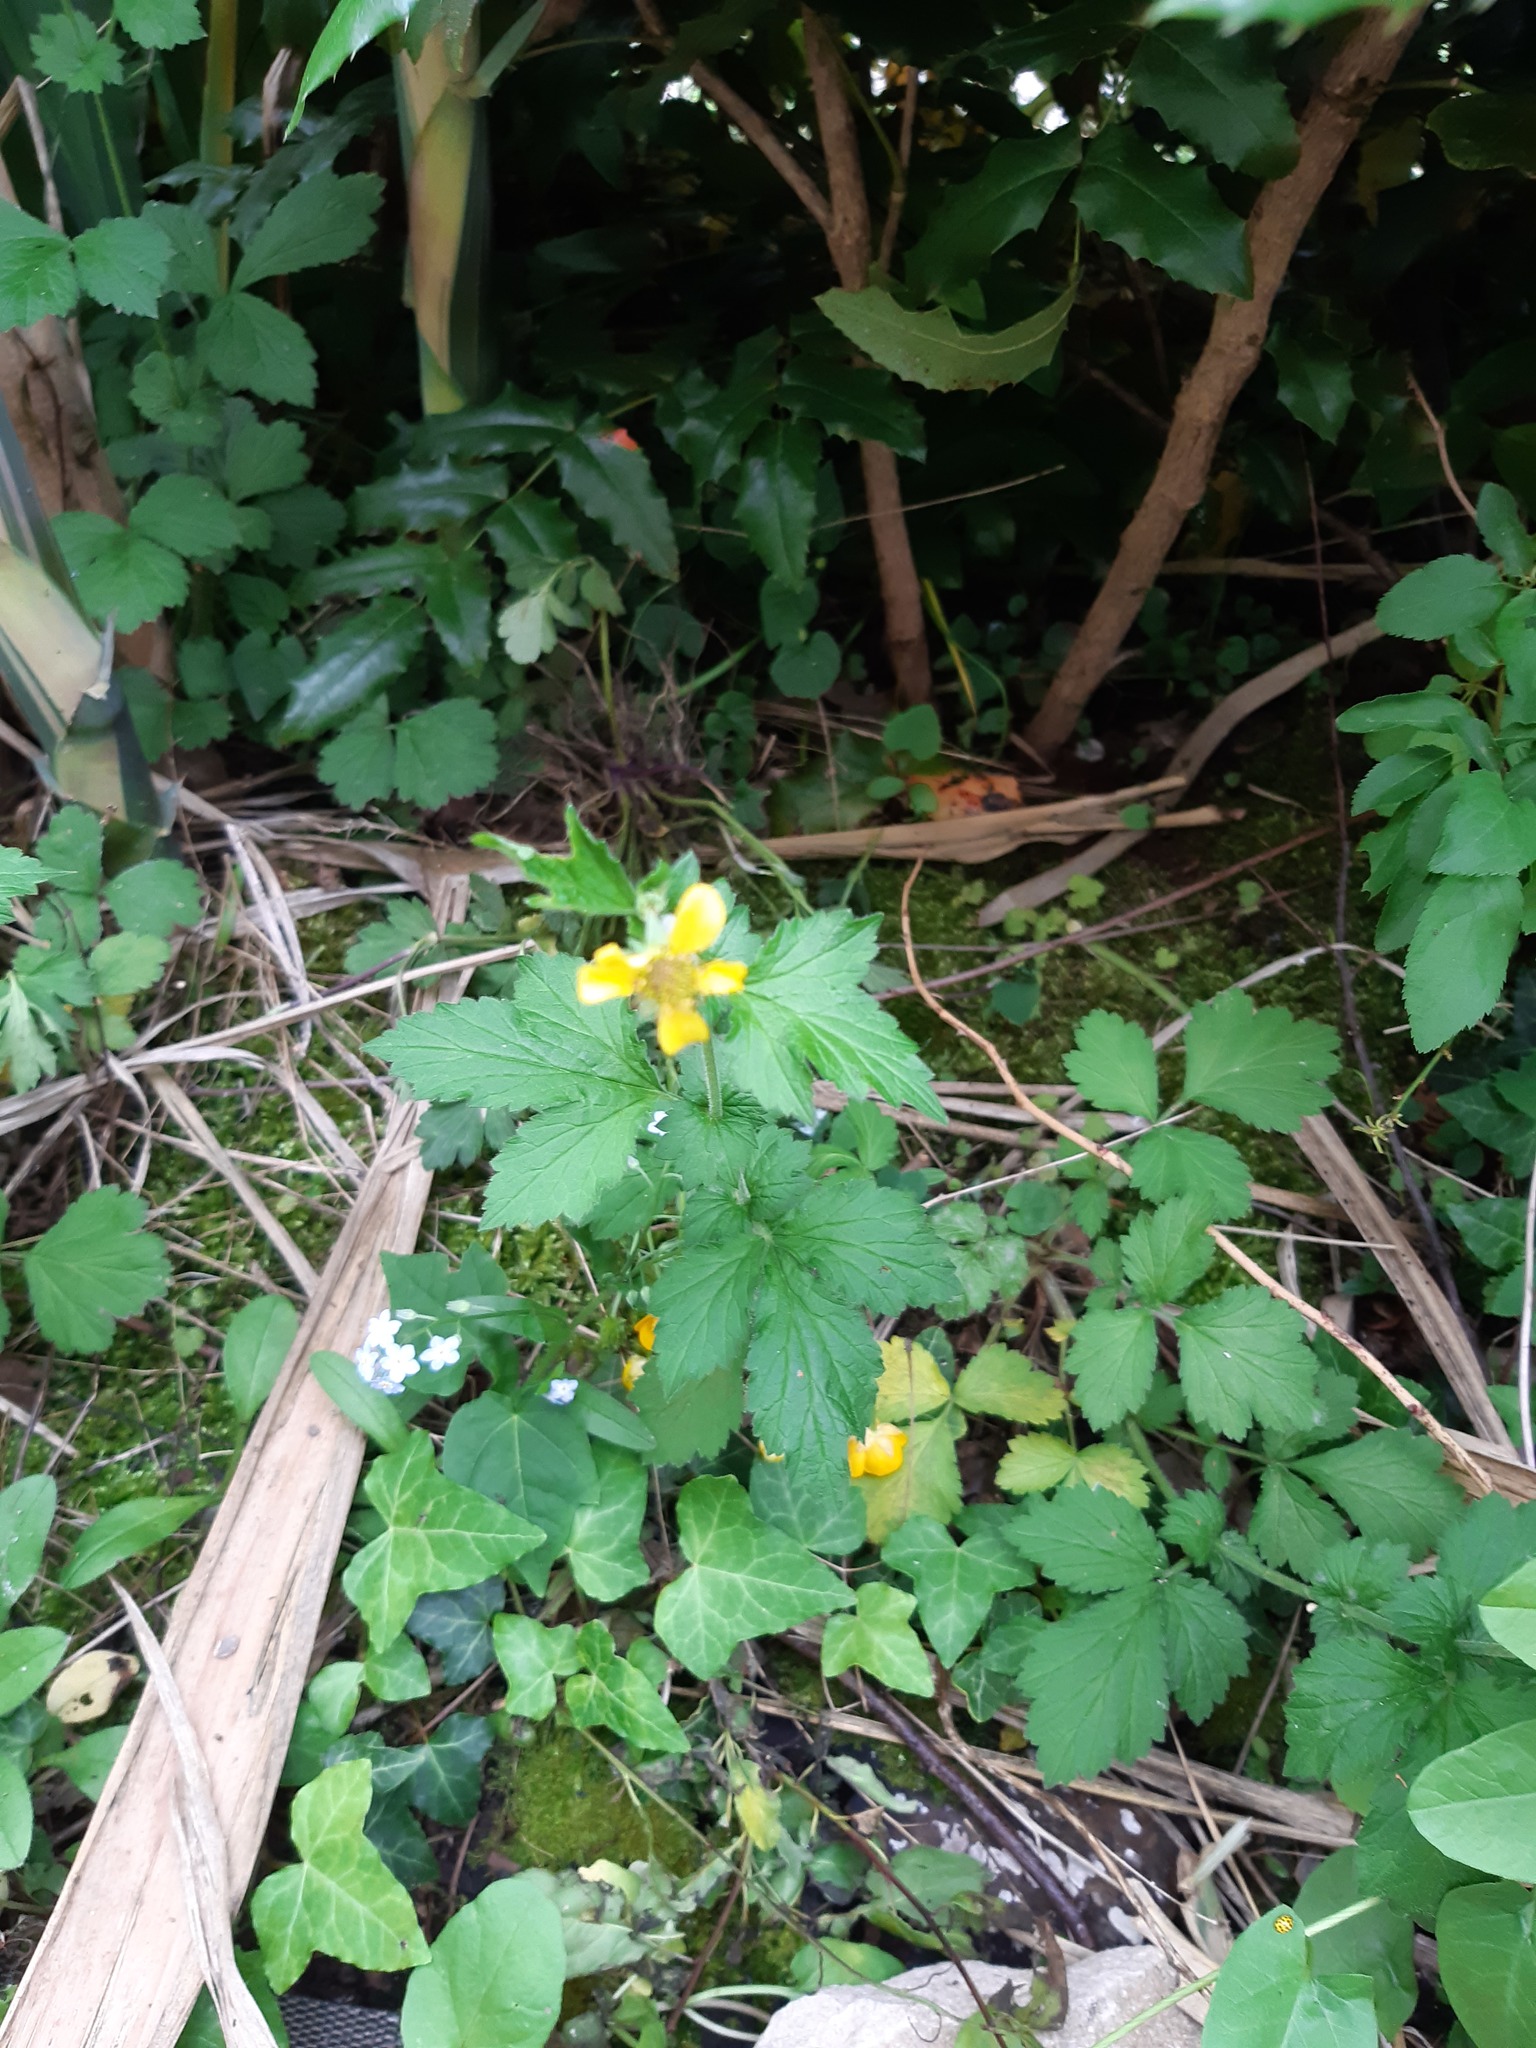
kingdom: Plantae
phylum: Tracheophyta
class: Magnoliopsida
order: Rosales
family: Rosaceae
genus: Geum
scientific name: Geum urbanum
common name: Wood avens
